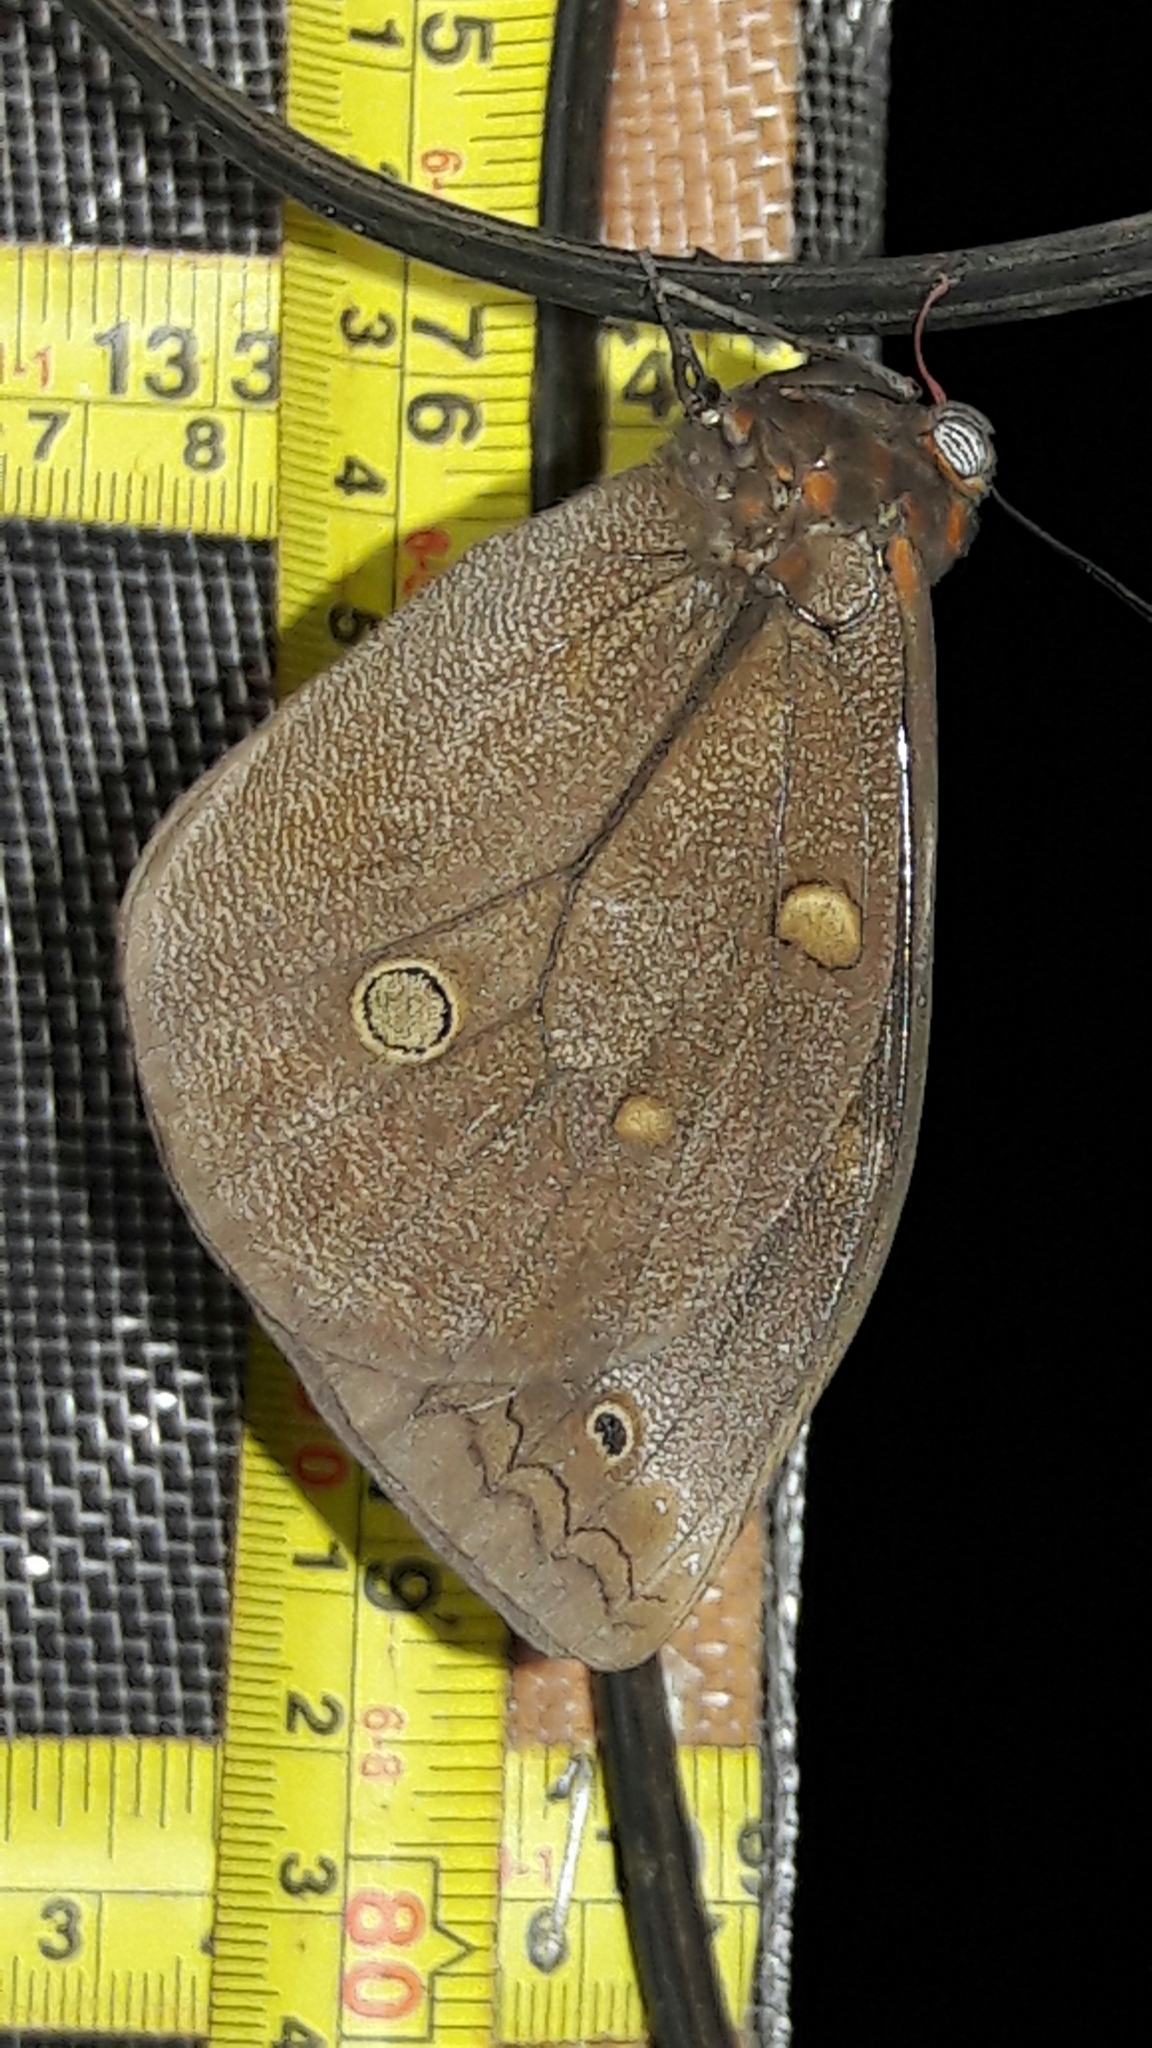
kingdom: Animalia
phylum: Arthropoda
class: Insecta
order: Lepidoptera
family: Nymphalidae
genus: Brassolis
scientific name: Brassolis sophorae
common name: Coconut caterpillar
